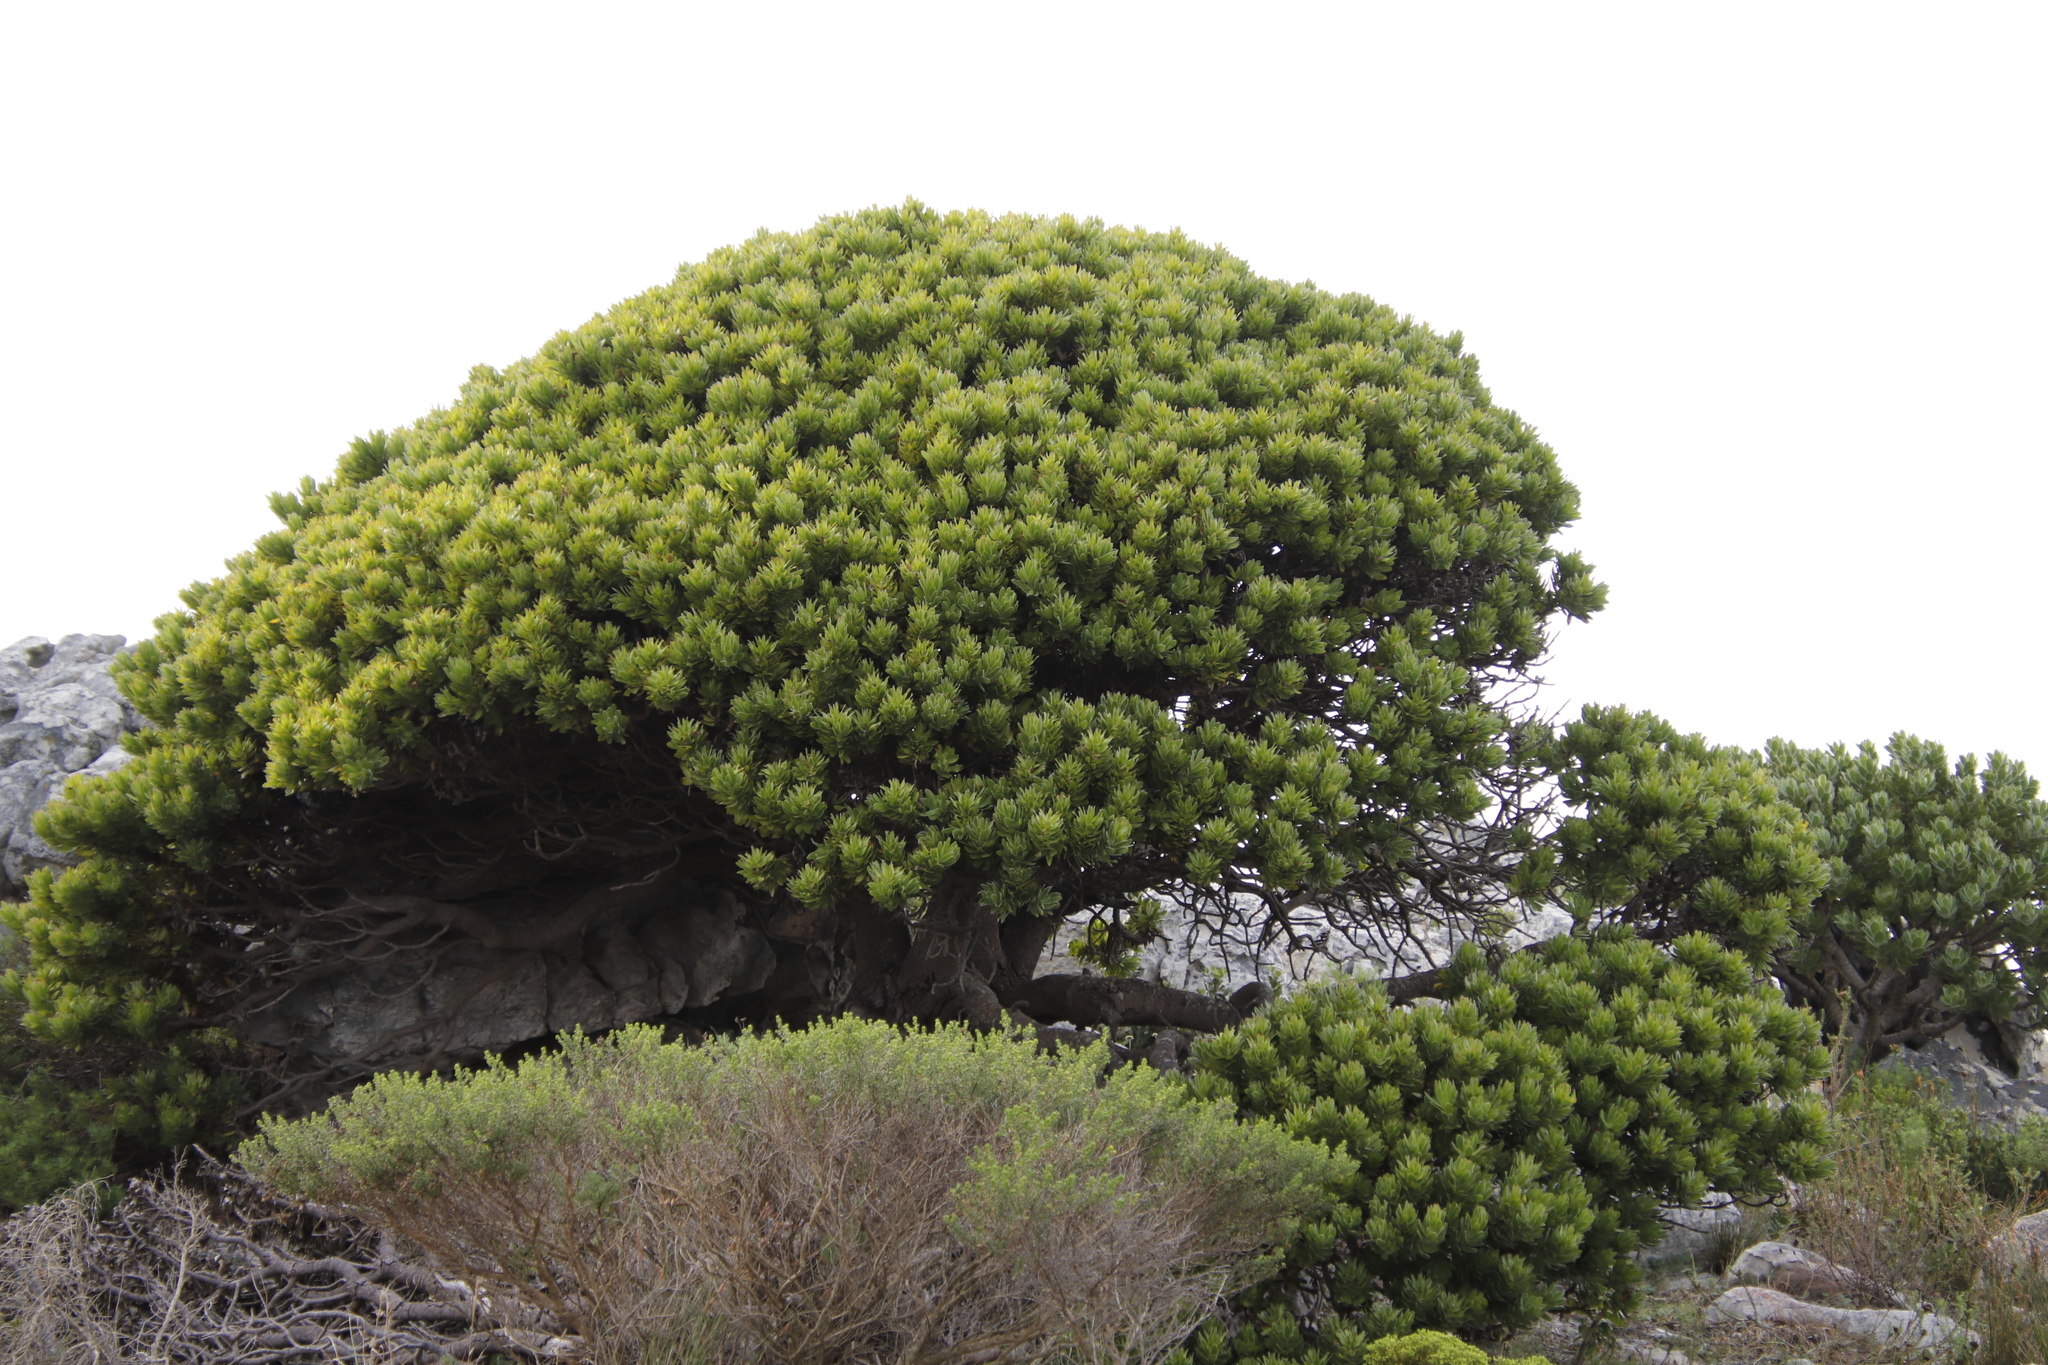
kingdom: Plantae
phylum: Tracheophyta
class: Magnoliopsida
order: Proteales
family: Proteaceae
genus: Mimetes
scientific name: Mimetes fimbriifolius
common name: Fringed bottlebrush
